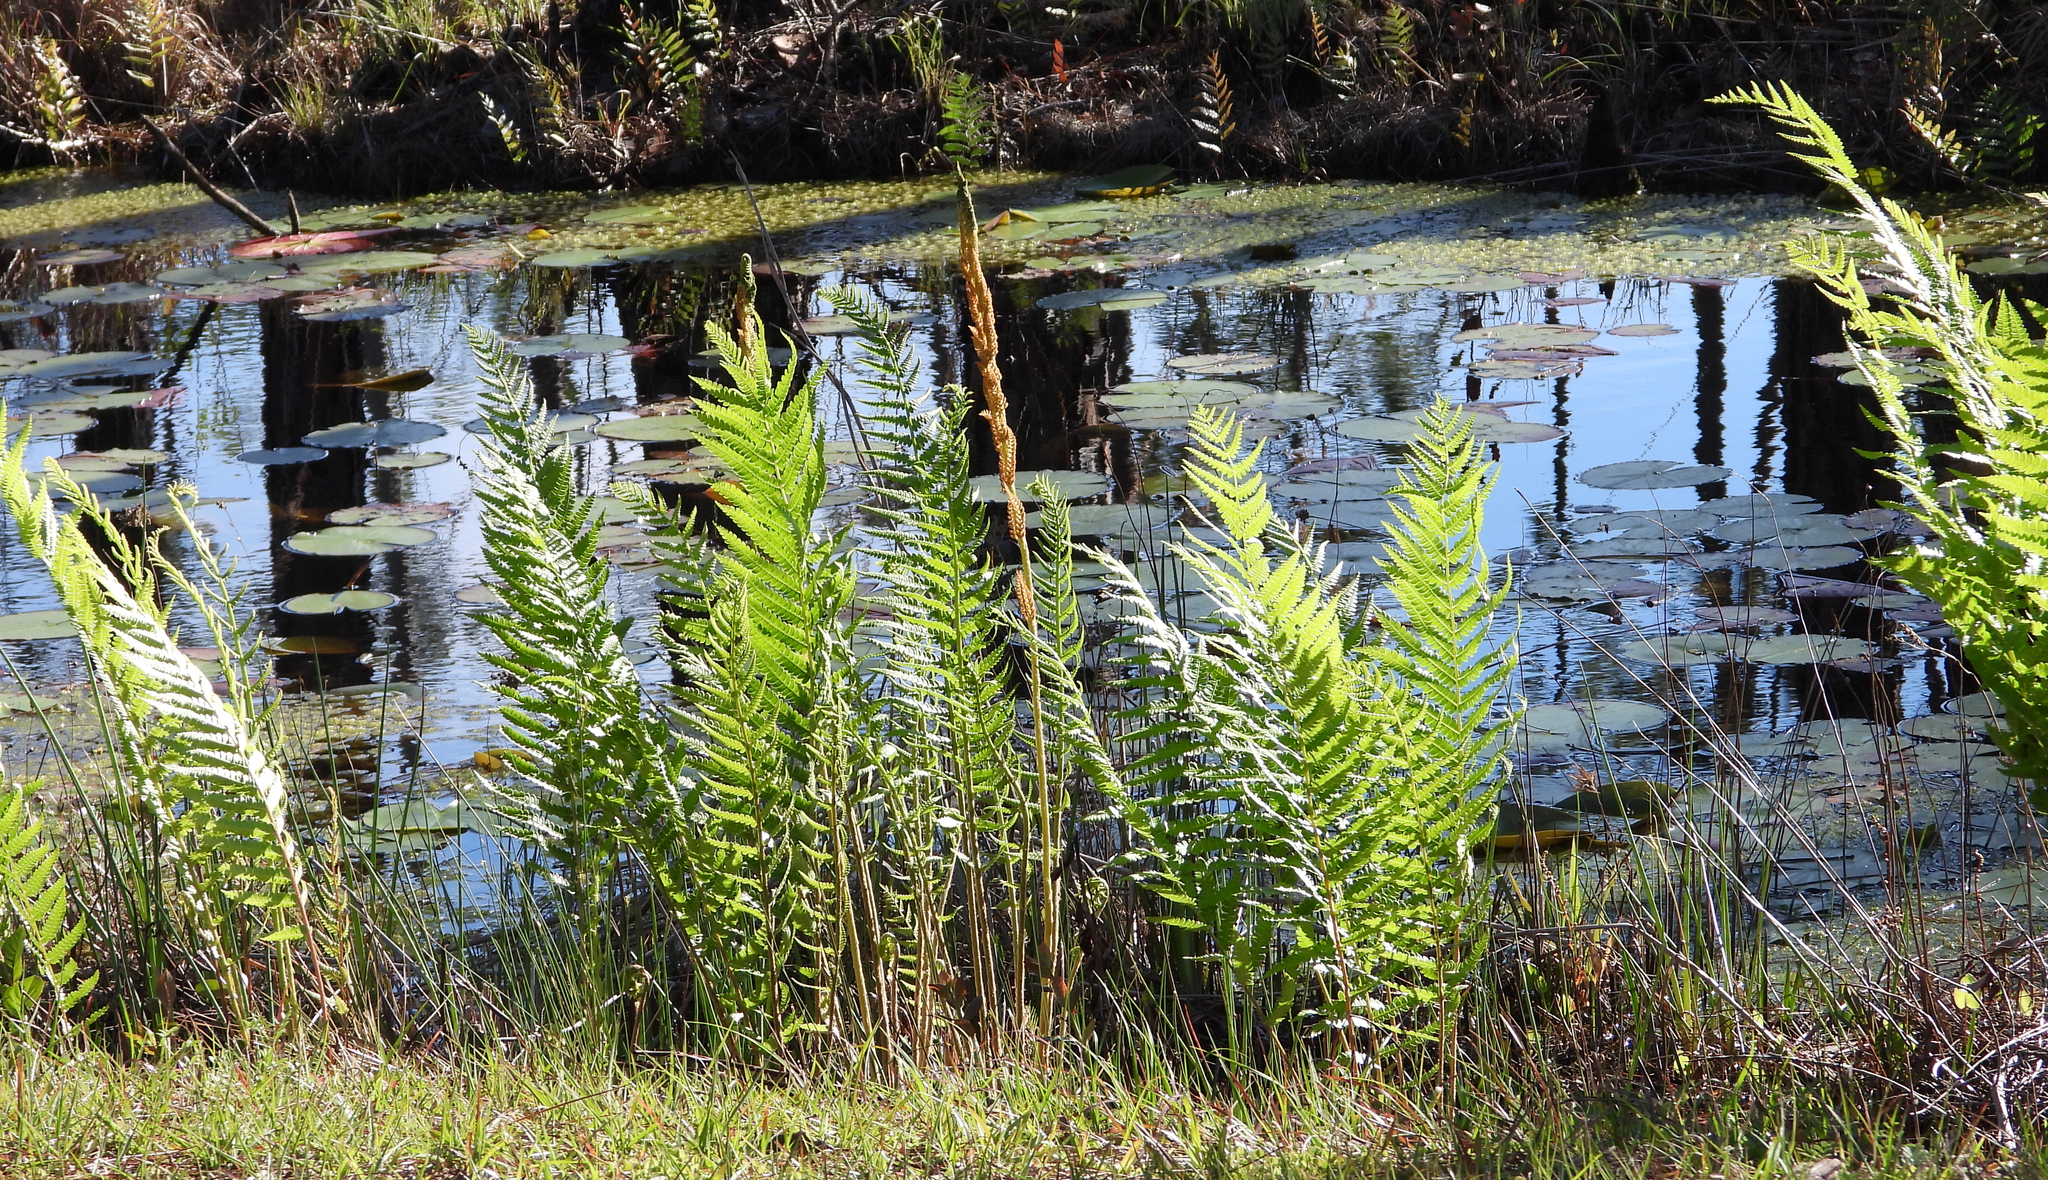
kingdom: Plantae
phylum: Tracheophyta
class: Polypodiopsida
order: Osmundales
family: Osmundaceae
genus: Osmundastrum
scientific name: Osmundastrum cinnamomeum
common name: Cinnamon fern
